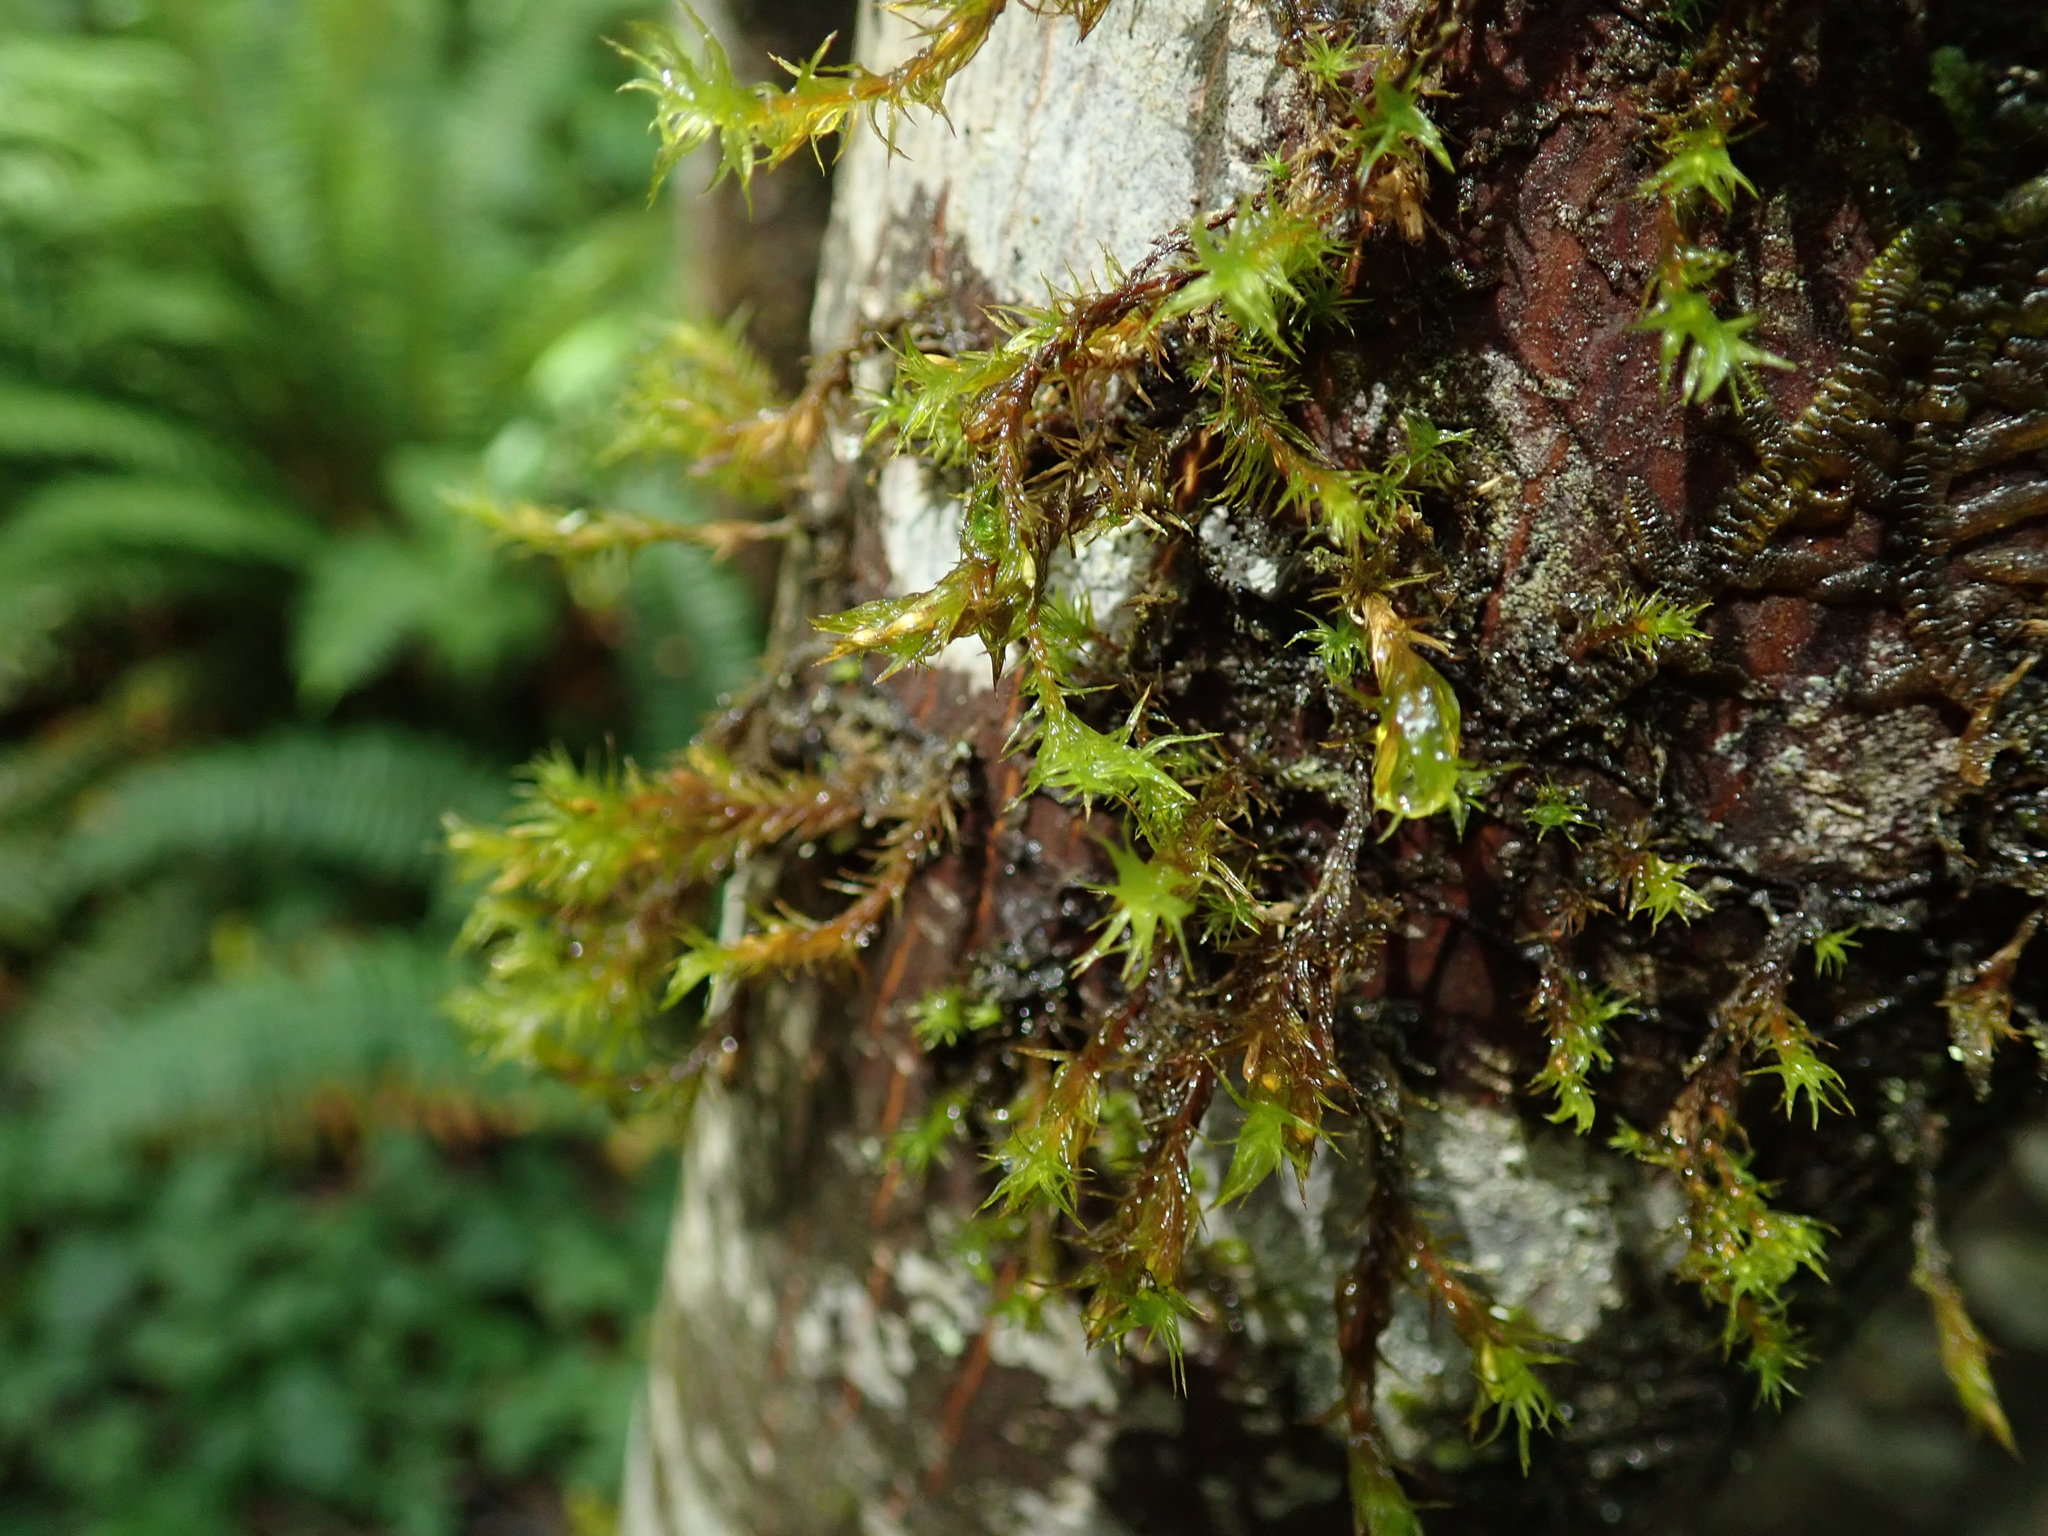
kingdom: Plantae
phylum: Bryophyta
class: Bryopsida
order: Orthotrichales
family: Orthotrichaceae
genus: Pulvigera
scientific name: Pulvigera lyellii
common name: Lyell's bristle-moss
